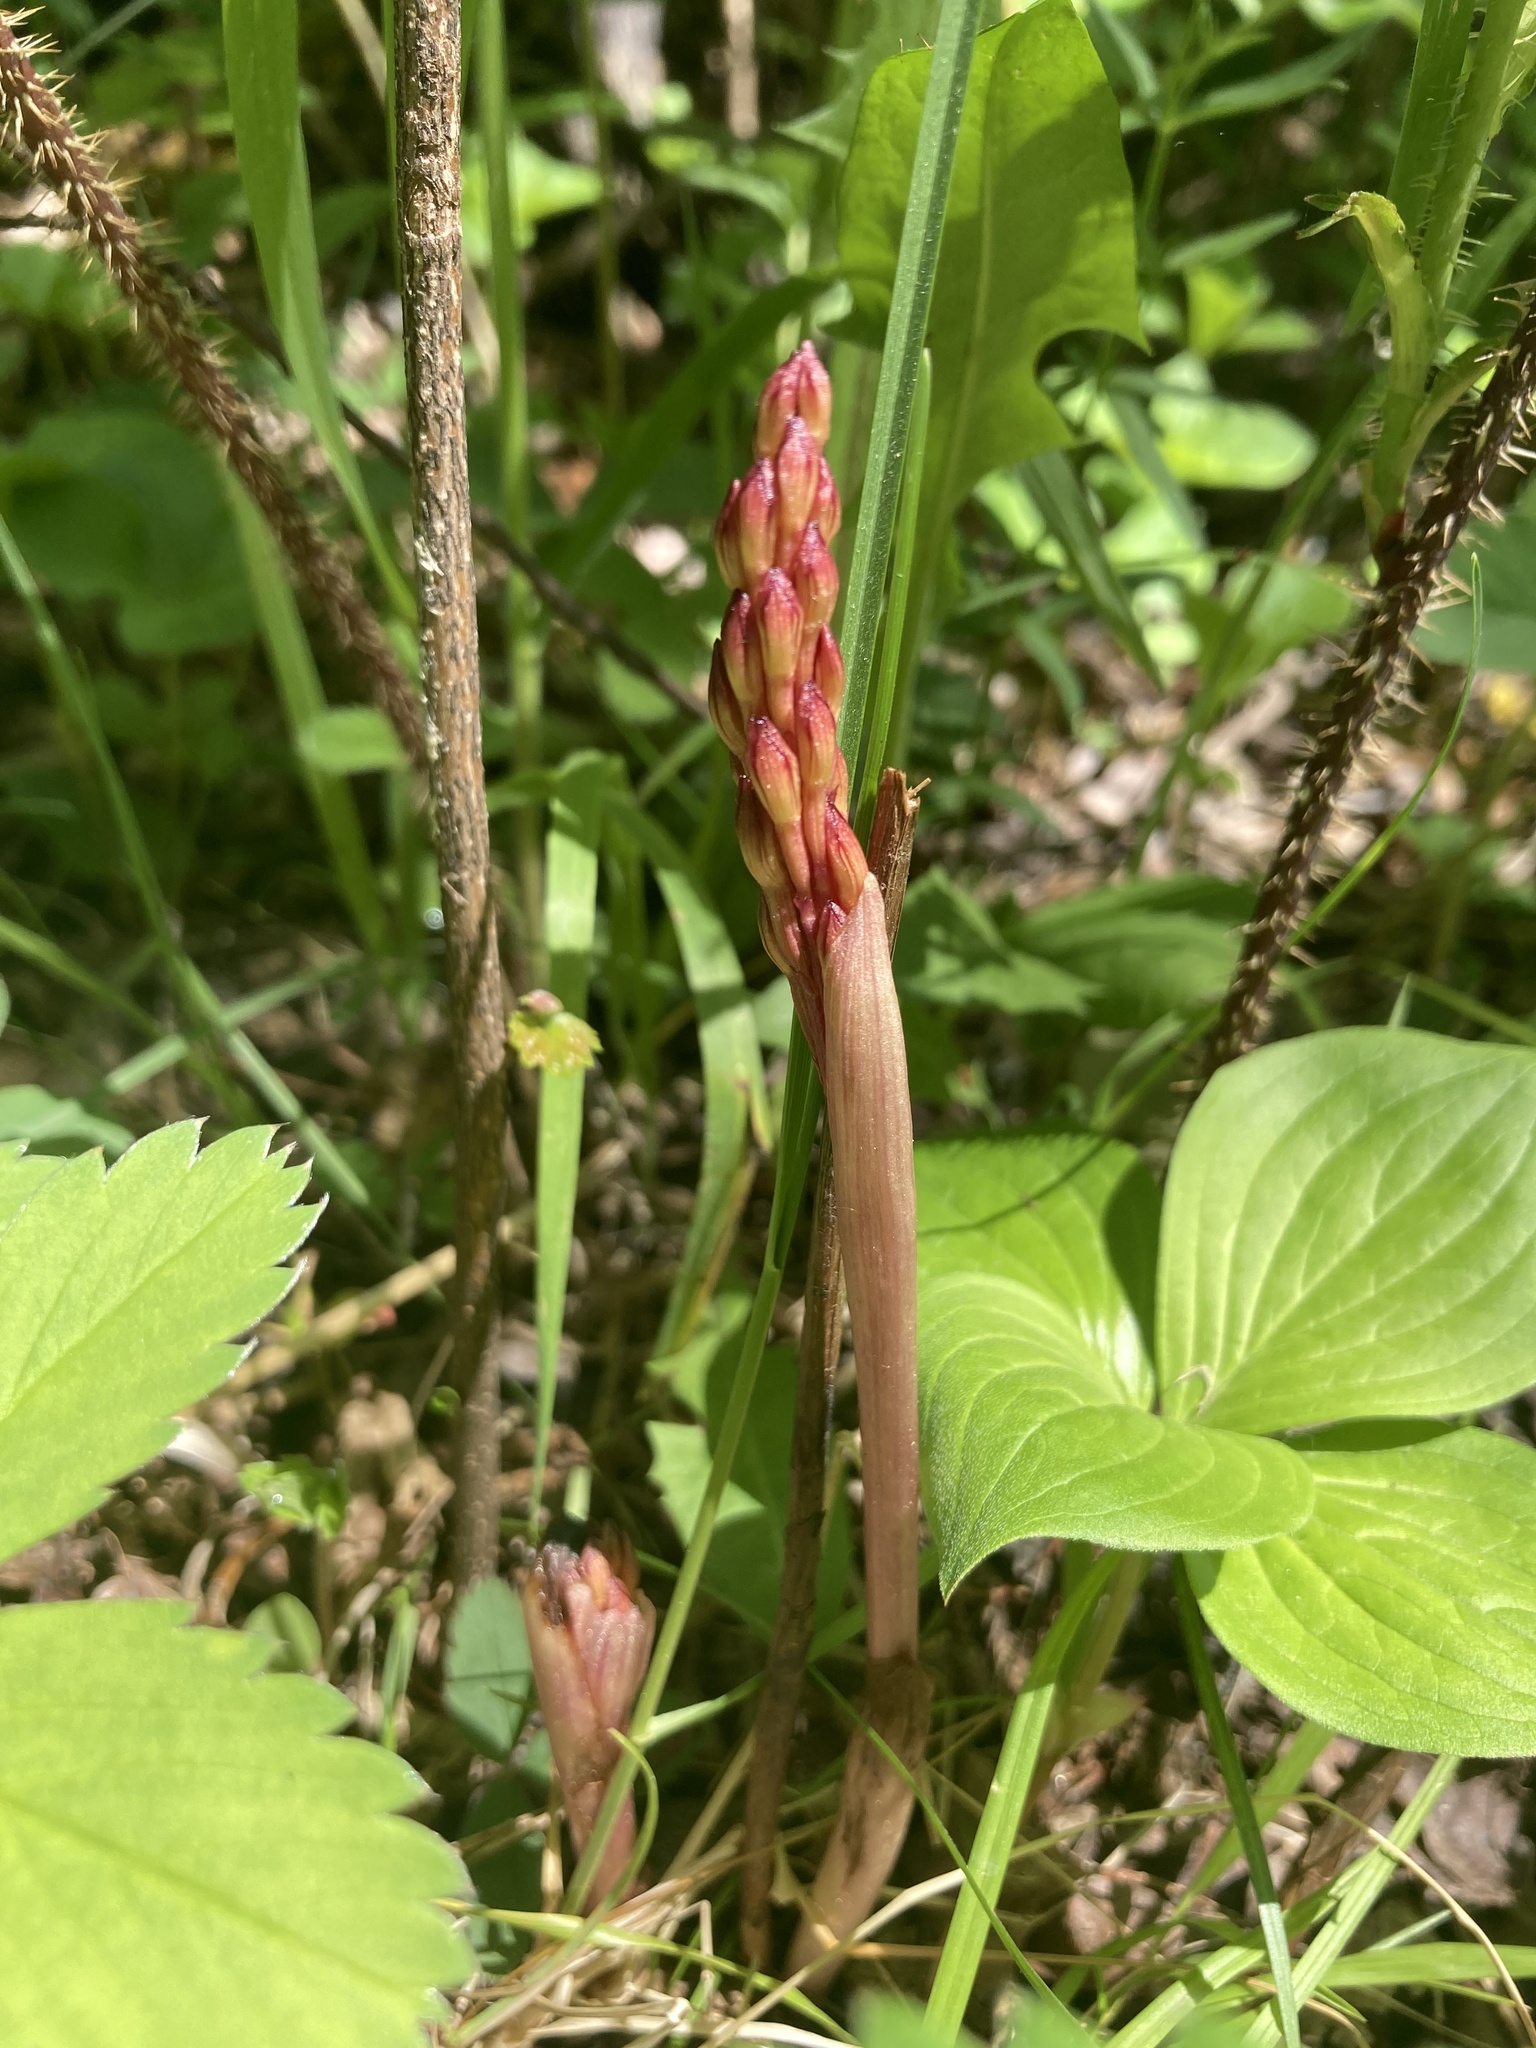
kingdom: Plantae
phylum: Tracheophyta
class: Liliopsida
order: Asparagales
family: Orchidaceae
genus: Corallorhiza
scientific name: Corallorhiza maculata
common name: Spotted coralroot
